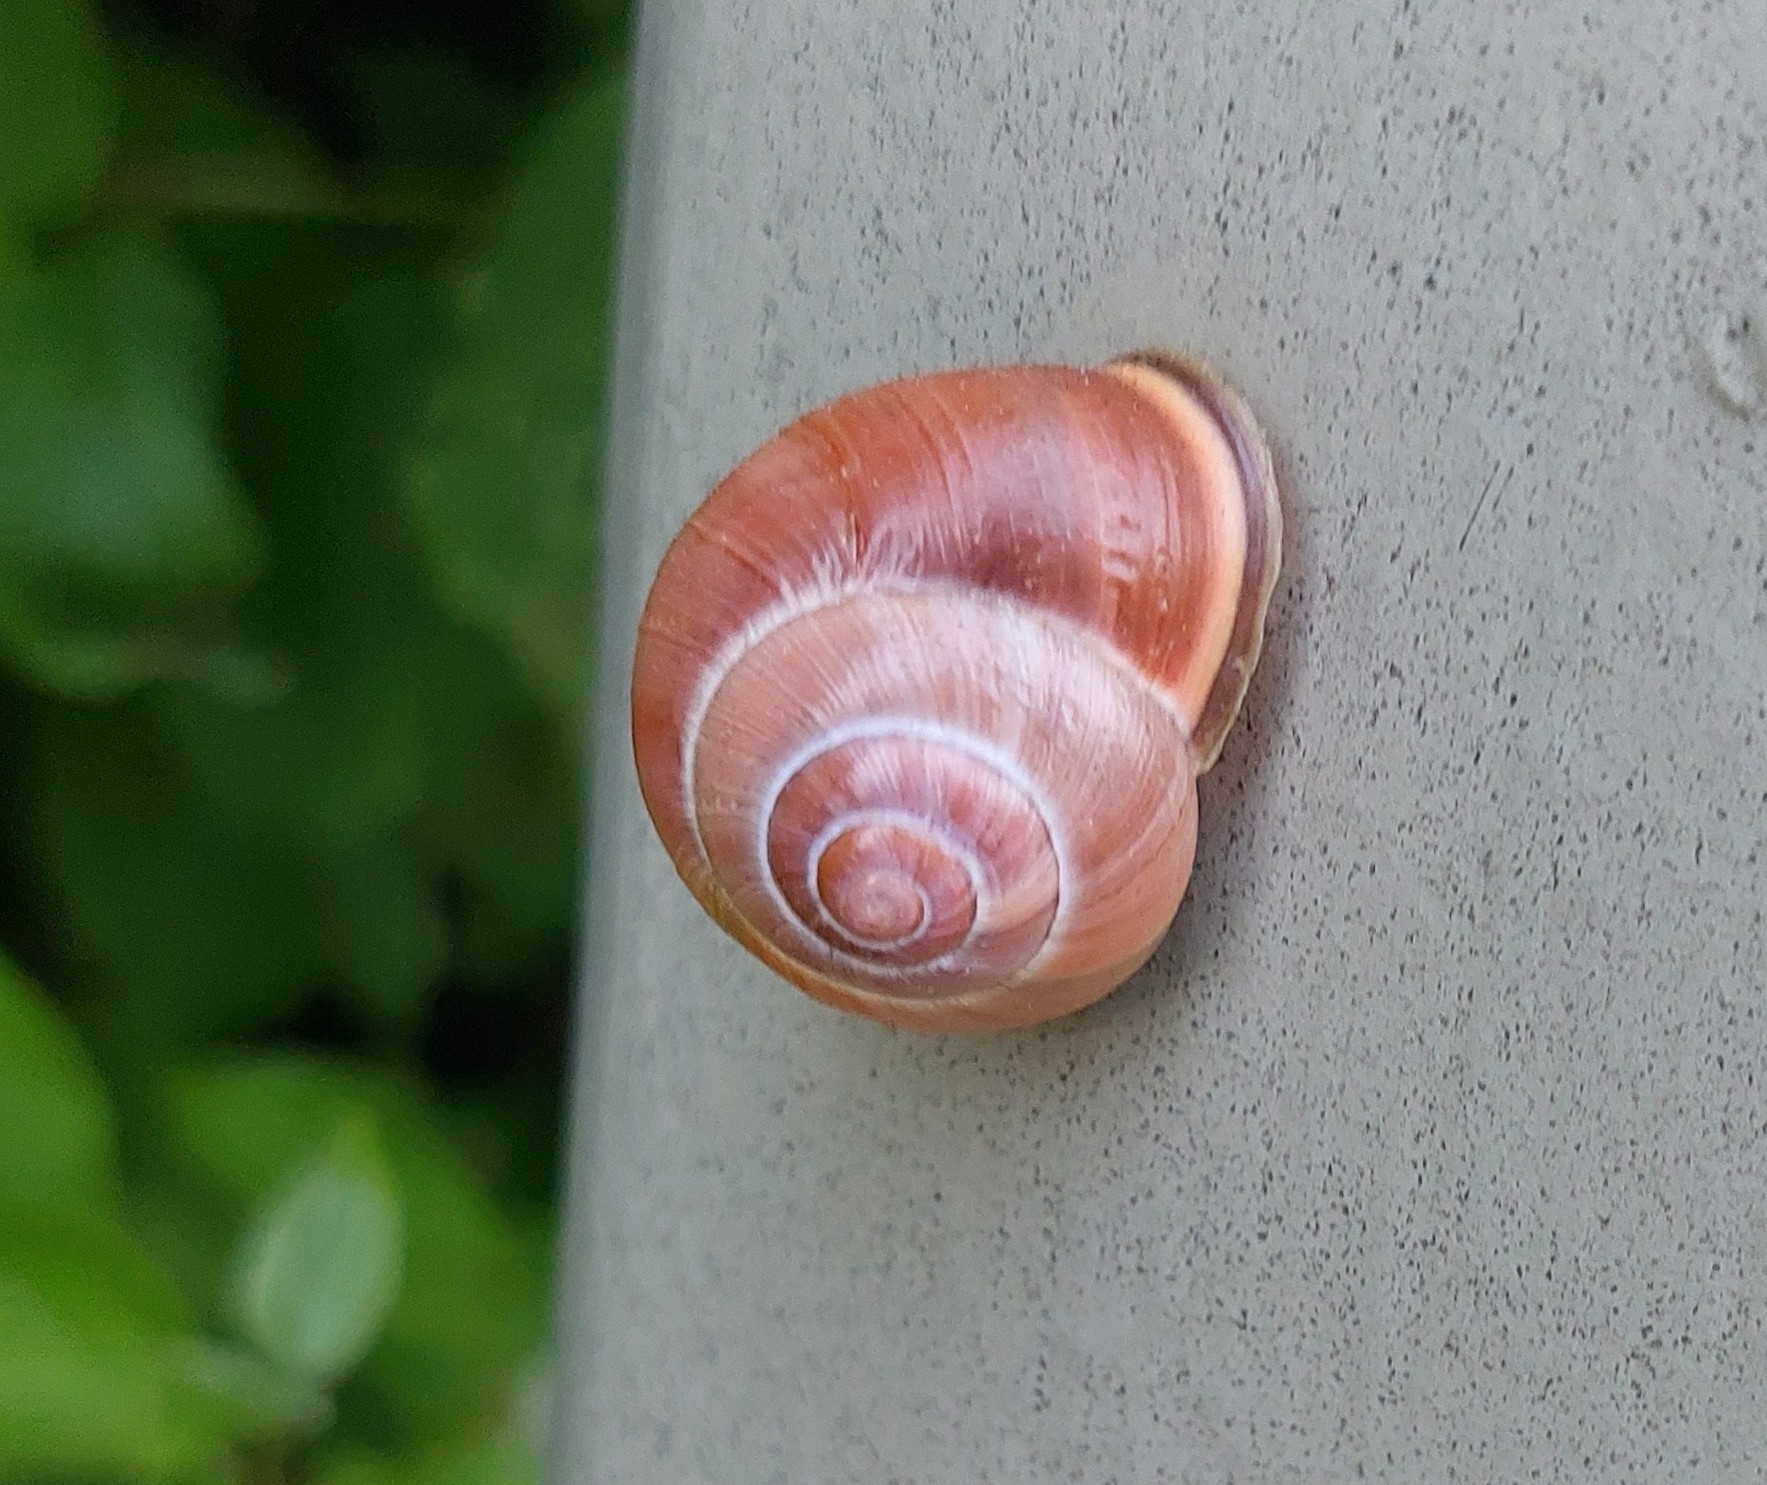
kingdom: Animalia
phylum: Mollusca
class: Gastropoda
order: Stylommatophora
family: Helicidae
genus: Cepaea
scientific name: Cepaea nemoralis
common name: Grovesnail
